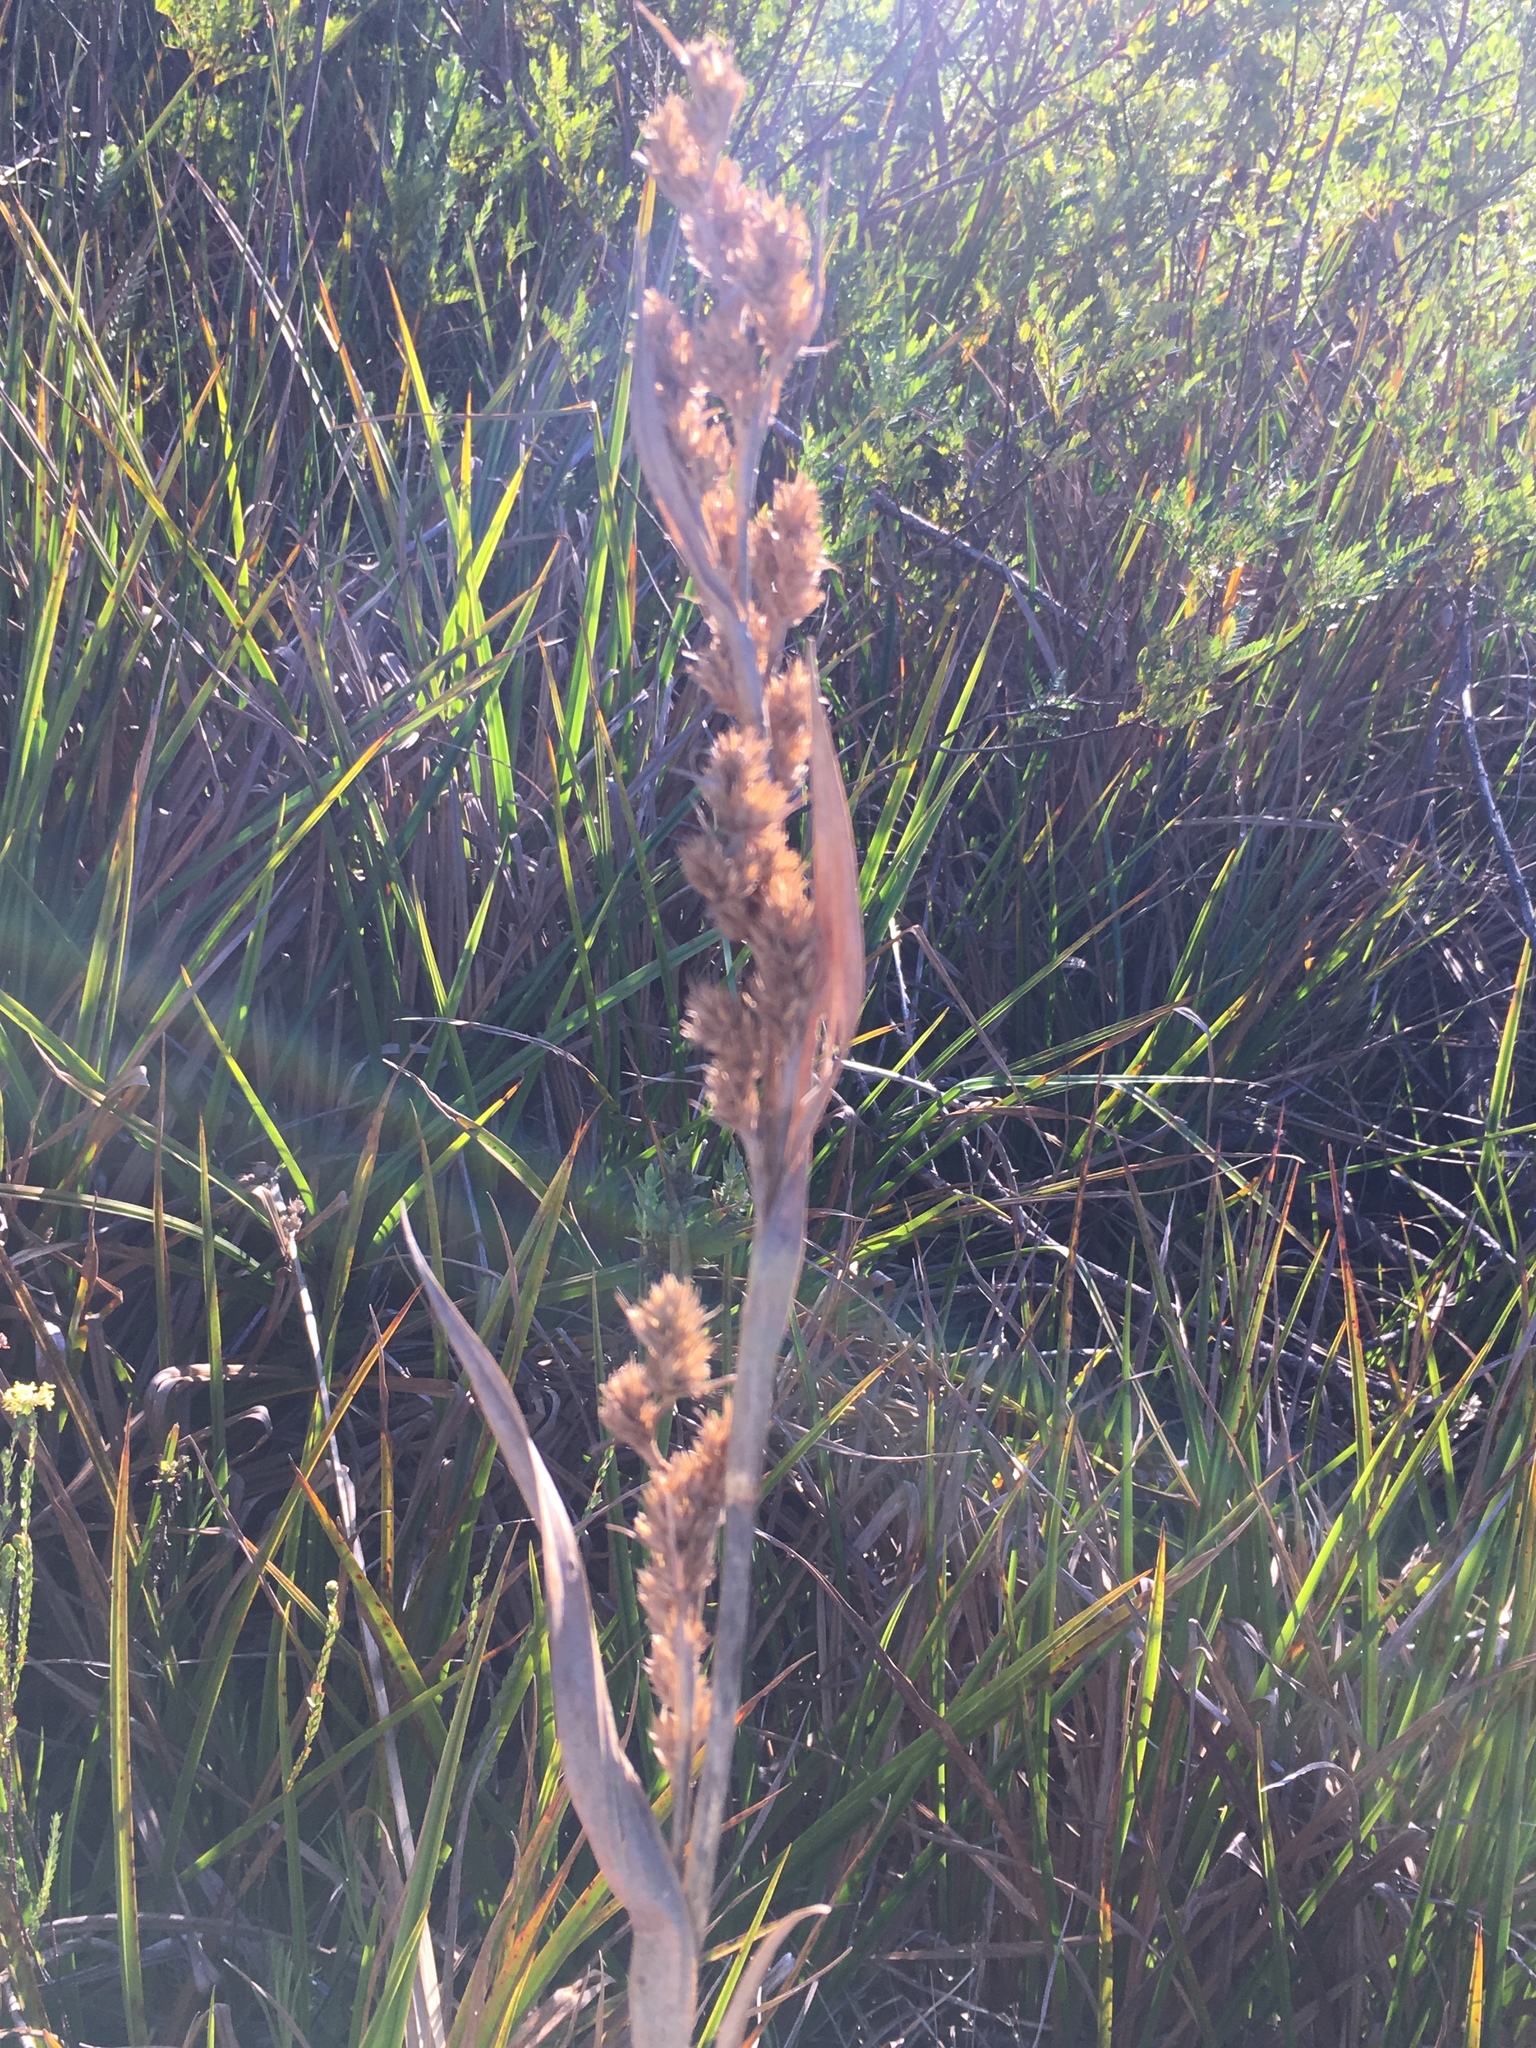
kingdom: Plantae
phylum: Tracheophyta
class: Liliopsida
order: Poales
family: Cyperaceae
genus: Carpha
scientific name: Carpha glomerata
